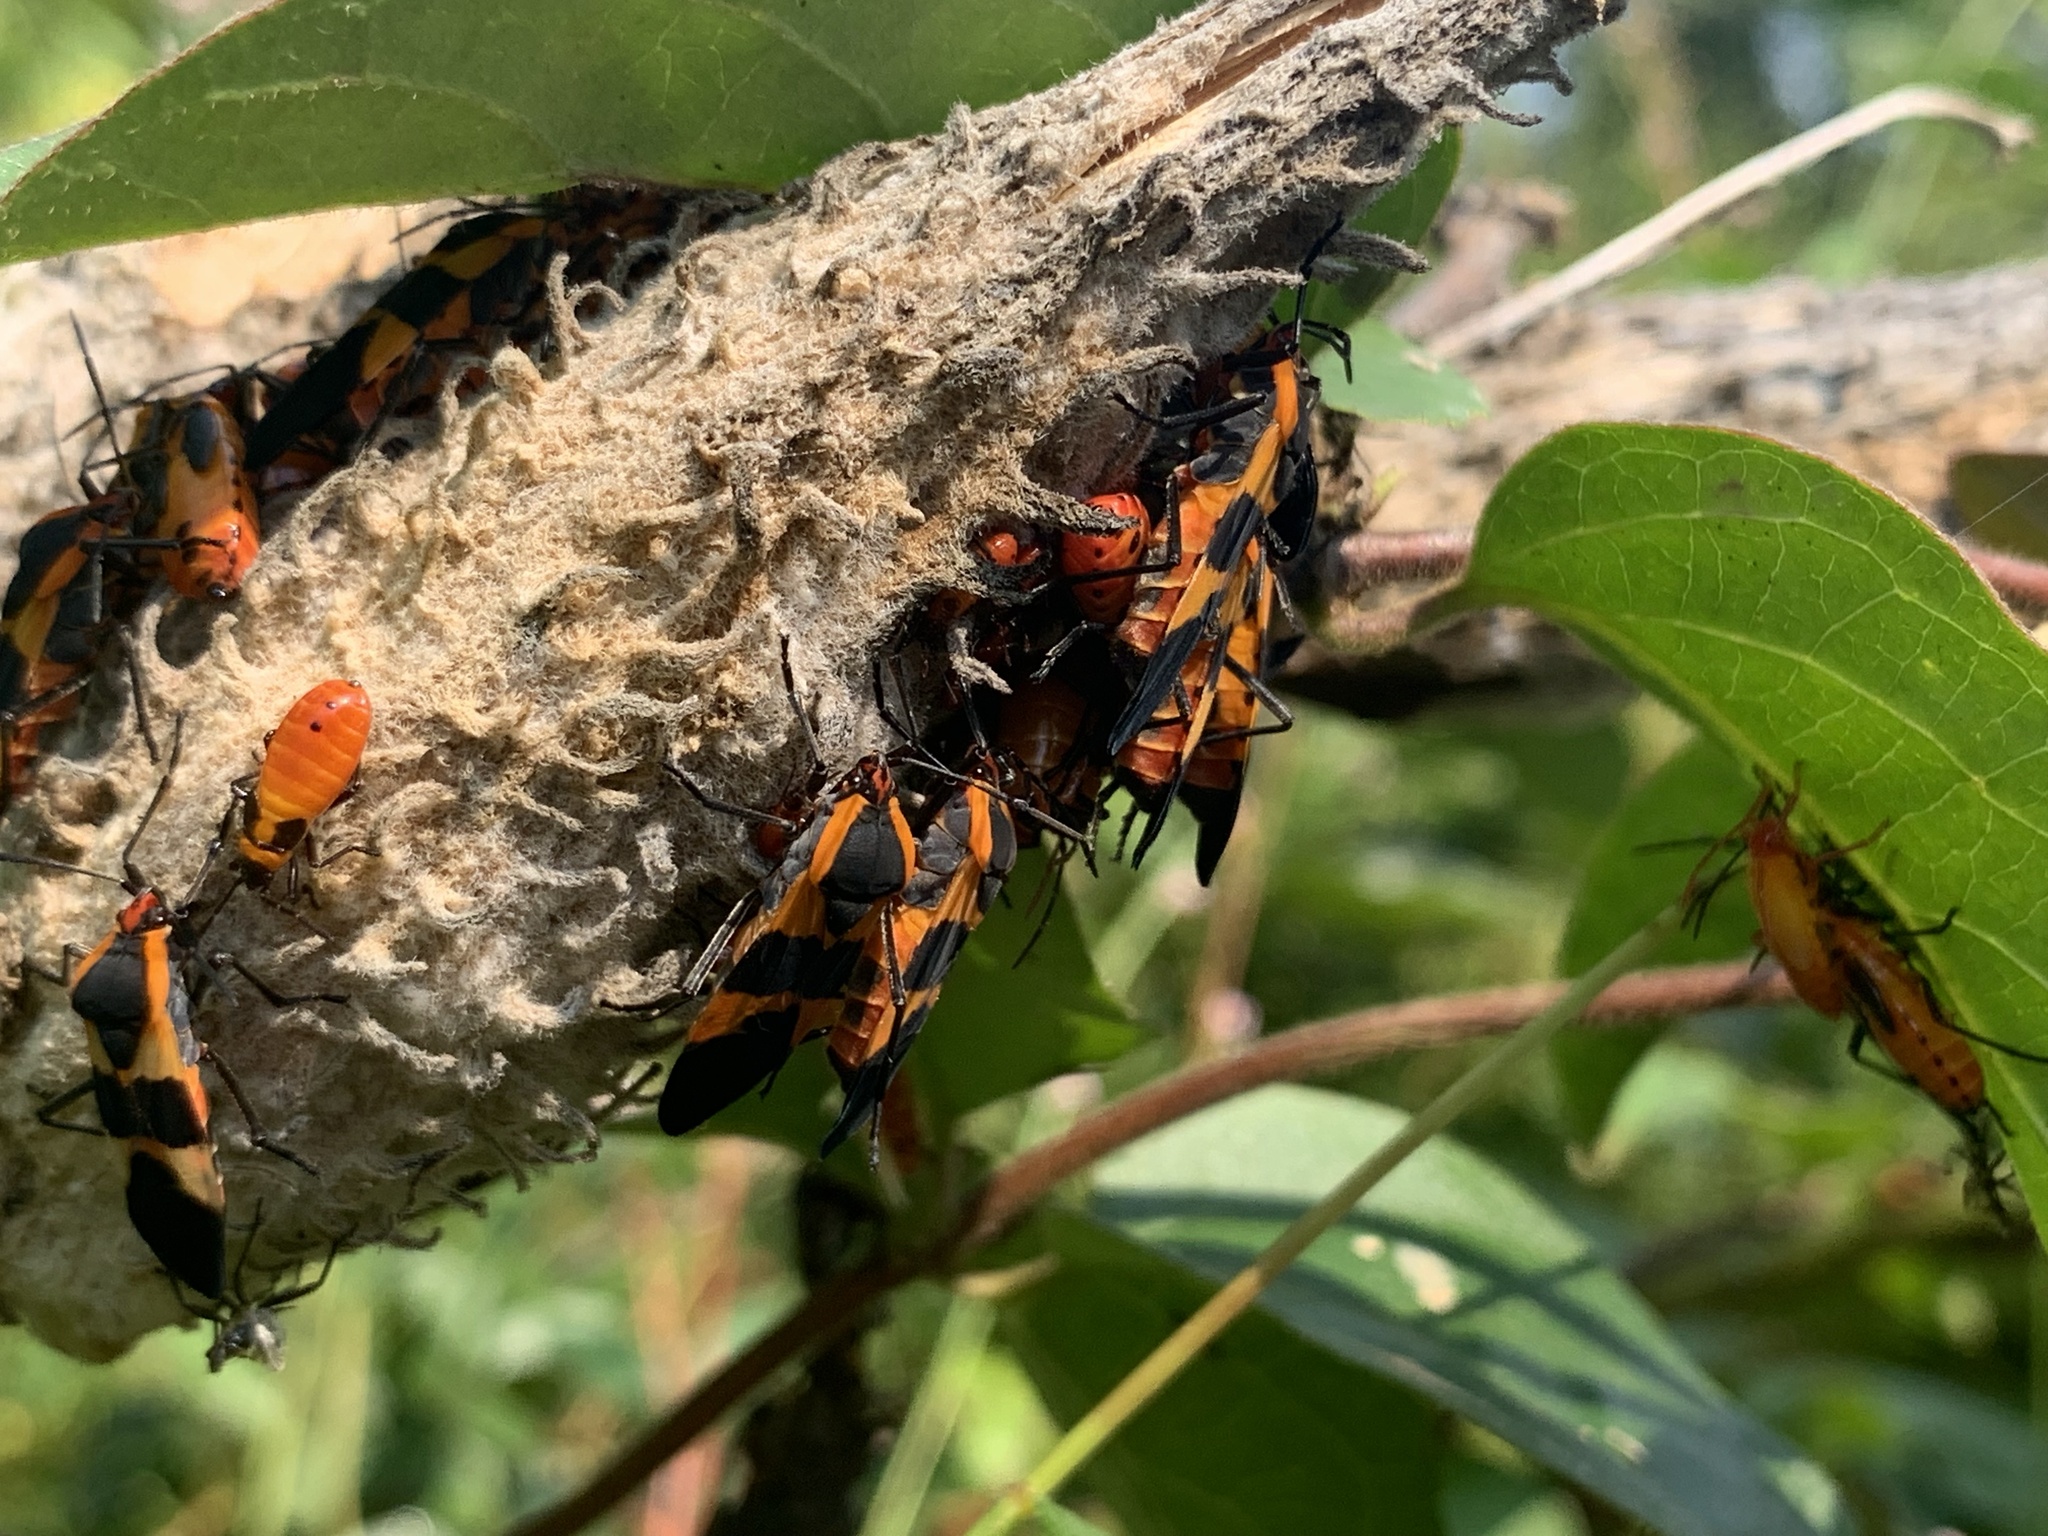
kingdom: Animalia
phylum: Arthropoda
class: Insecta
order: Hemiptera
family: Lygaeidae
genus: Oncopeltus
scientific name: Oncopeltus fasciatus
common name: Large milkweed bug
